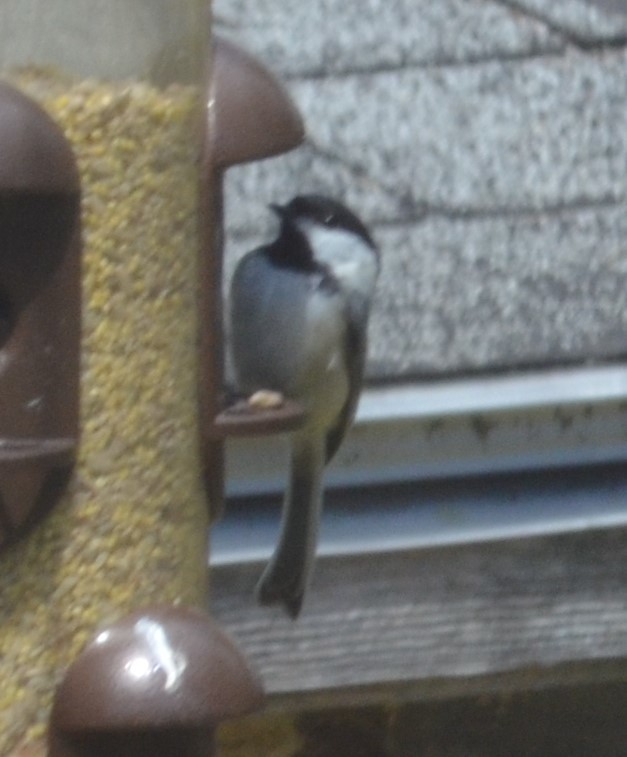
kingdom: Animalia
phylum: Chordata
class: Aves
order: Passeriformes
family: Paridae
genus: Poecile
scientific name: Poecile atricapillus
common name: Black-capped chickadee
